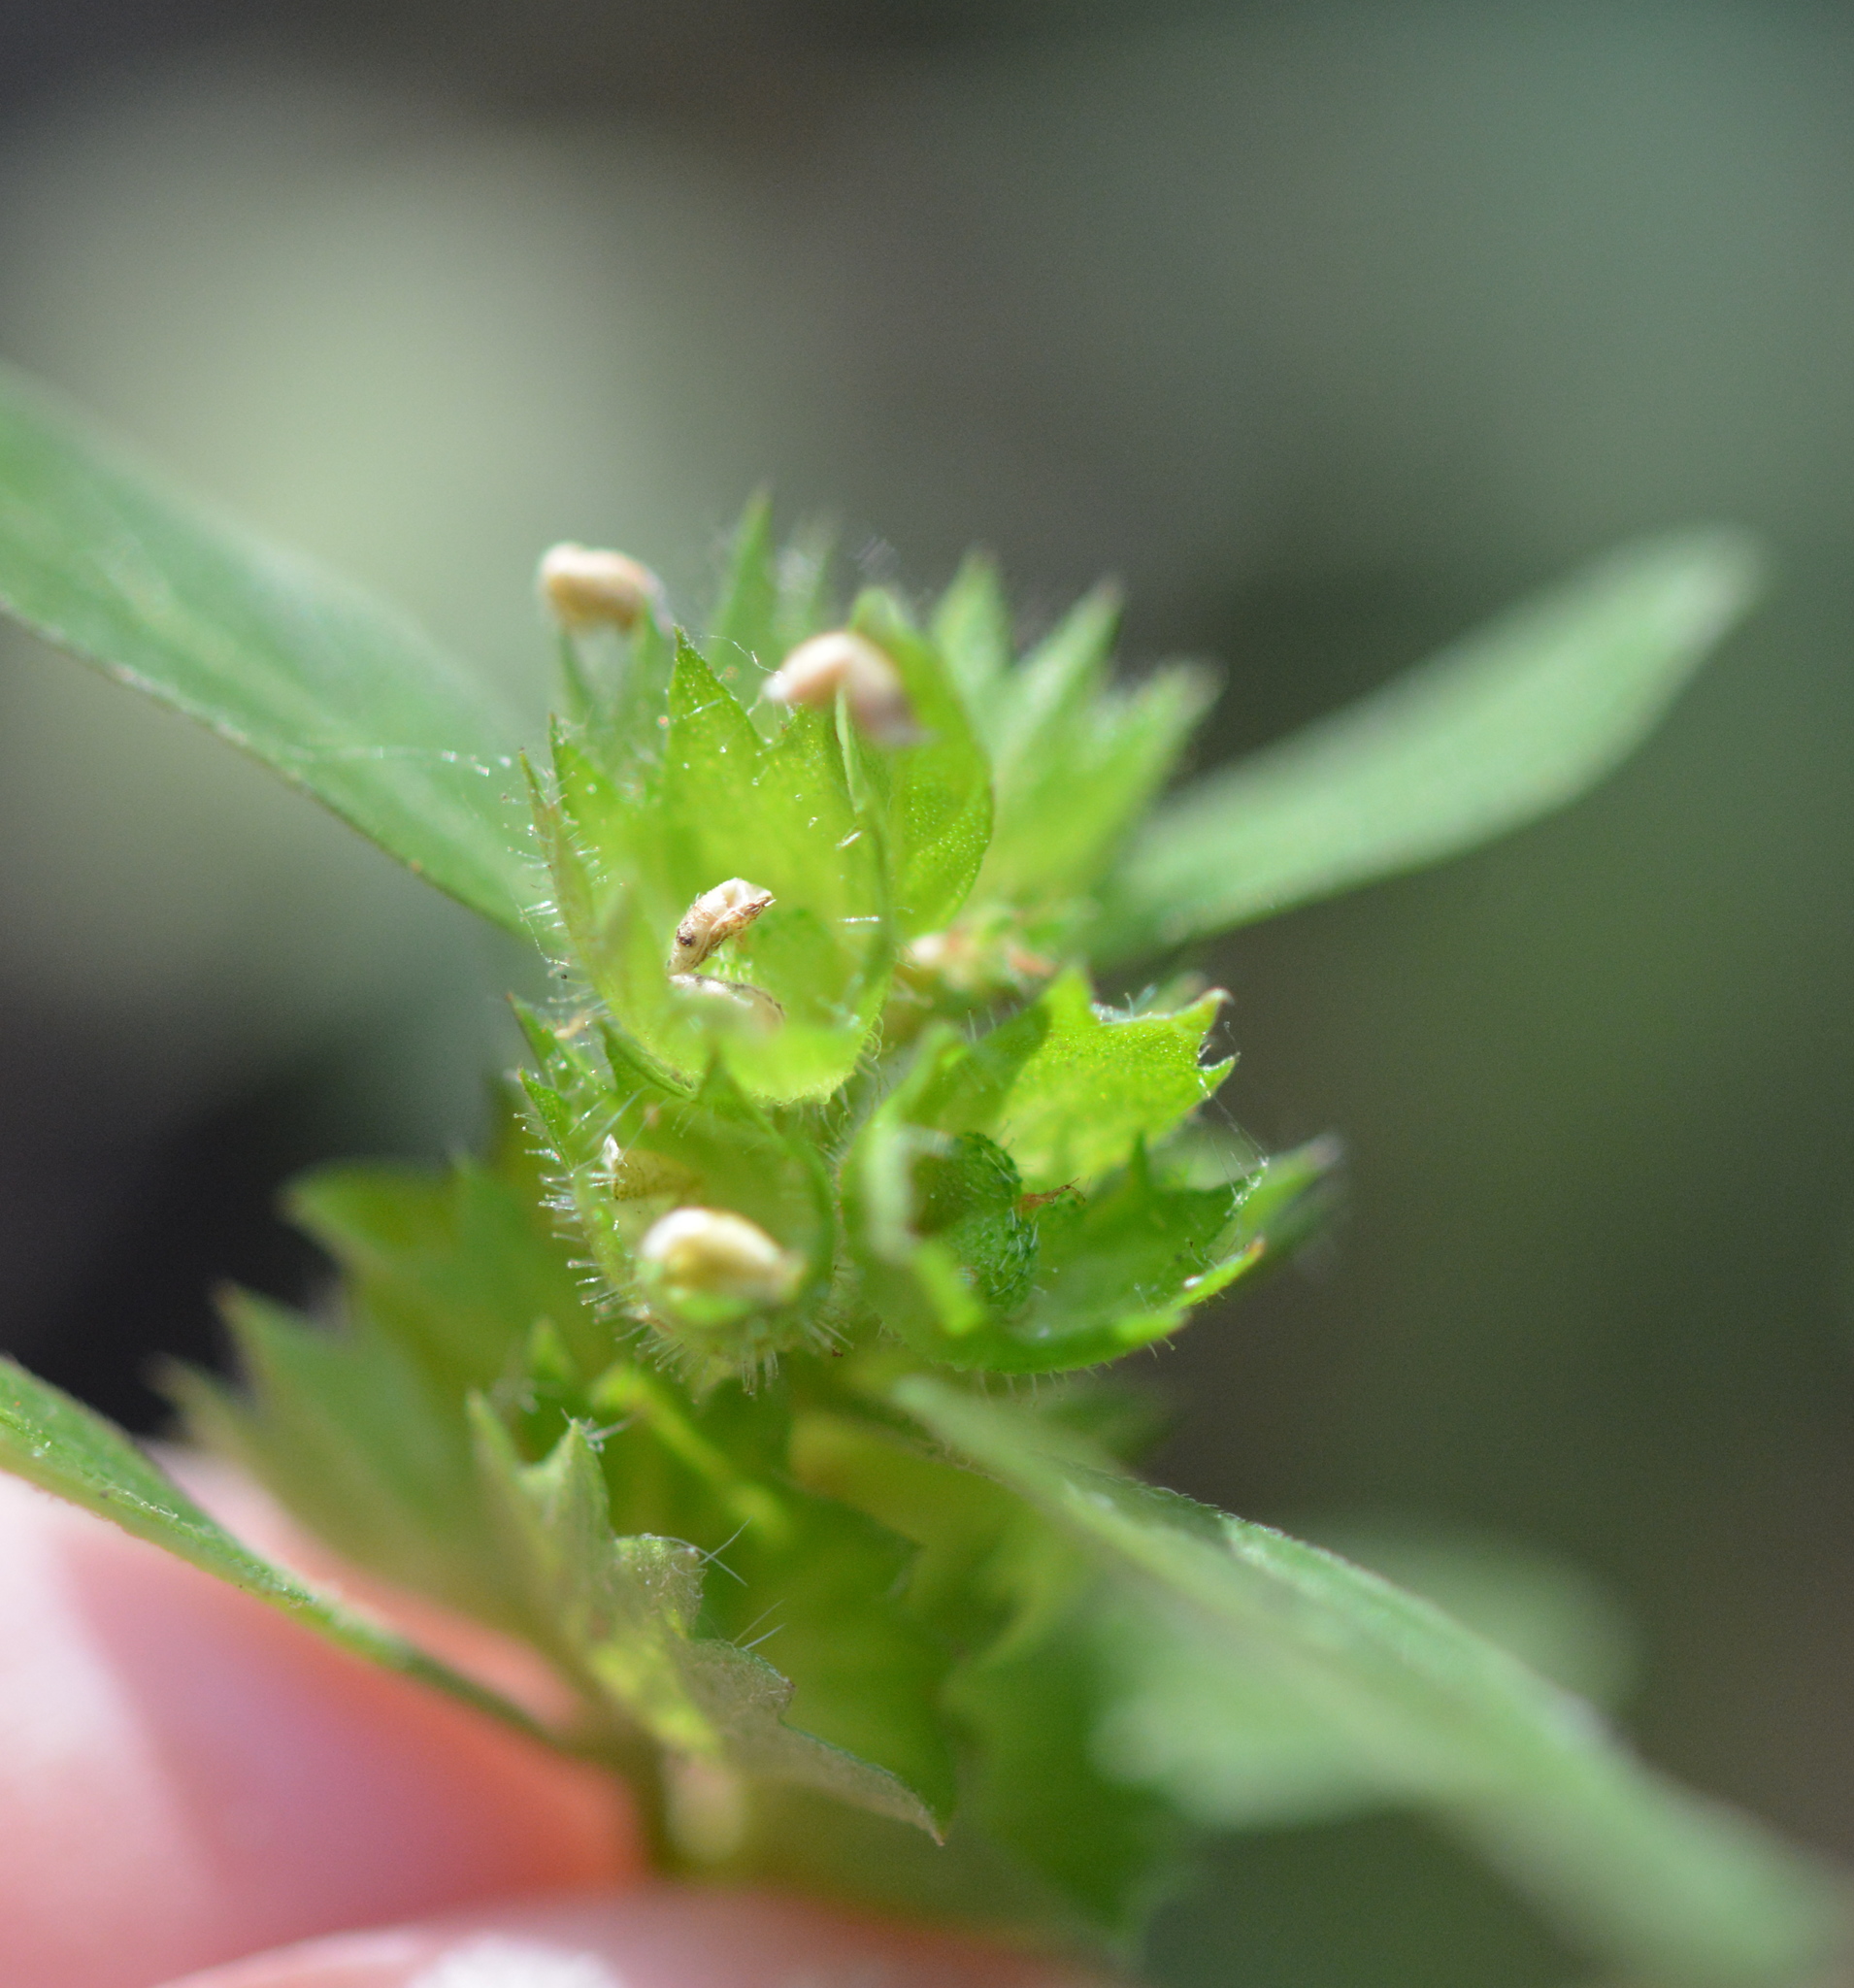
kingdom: Plantae
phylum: Tracheophyta
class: Magnoliopsida
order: Malpighiales
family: Euphorbiaceae
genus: Acalypha
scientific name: Acalypha gracilens
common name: Slender three-seeded mercury
